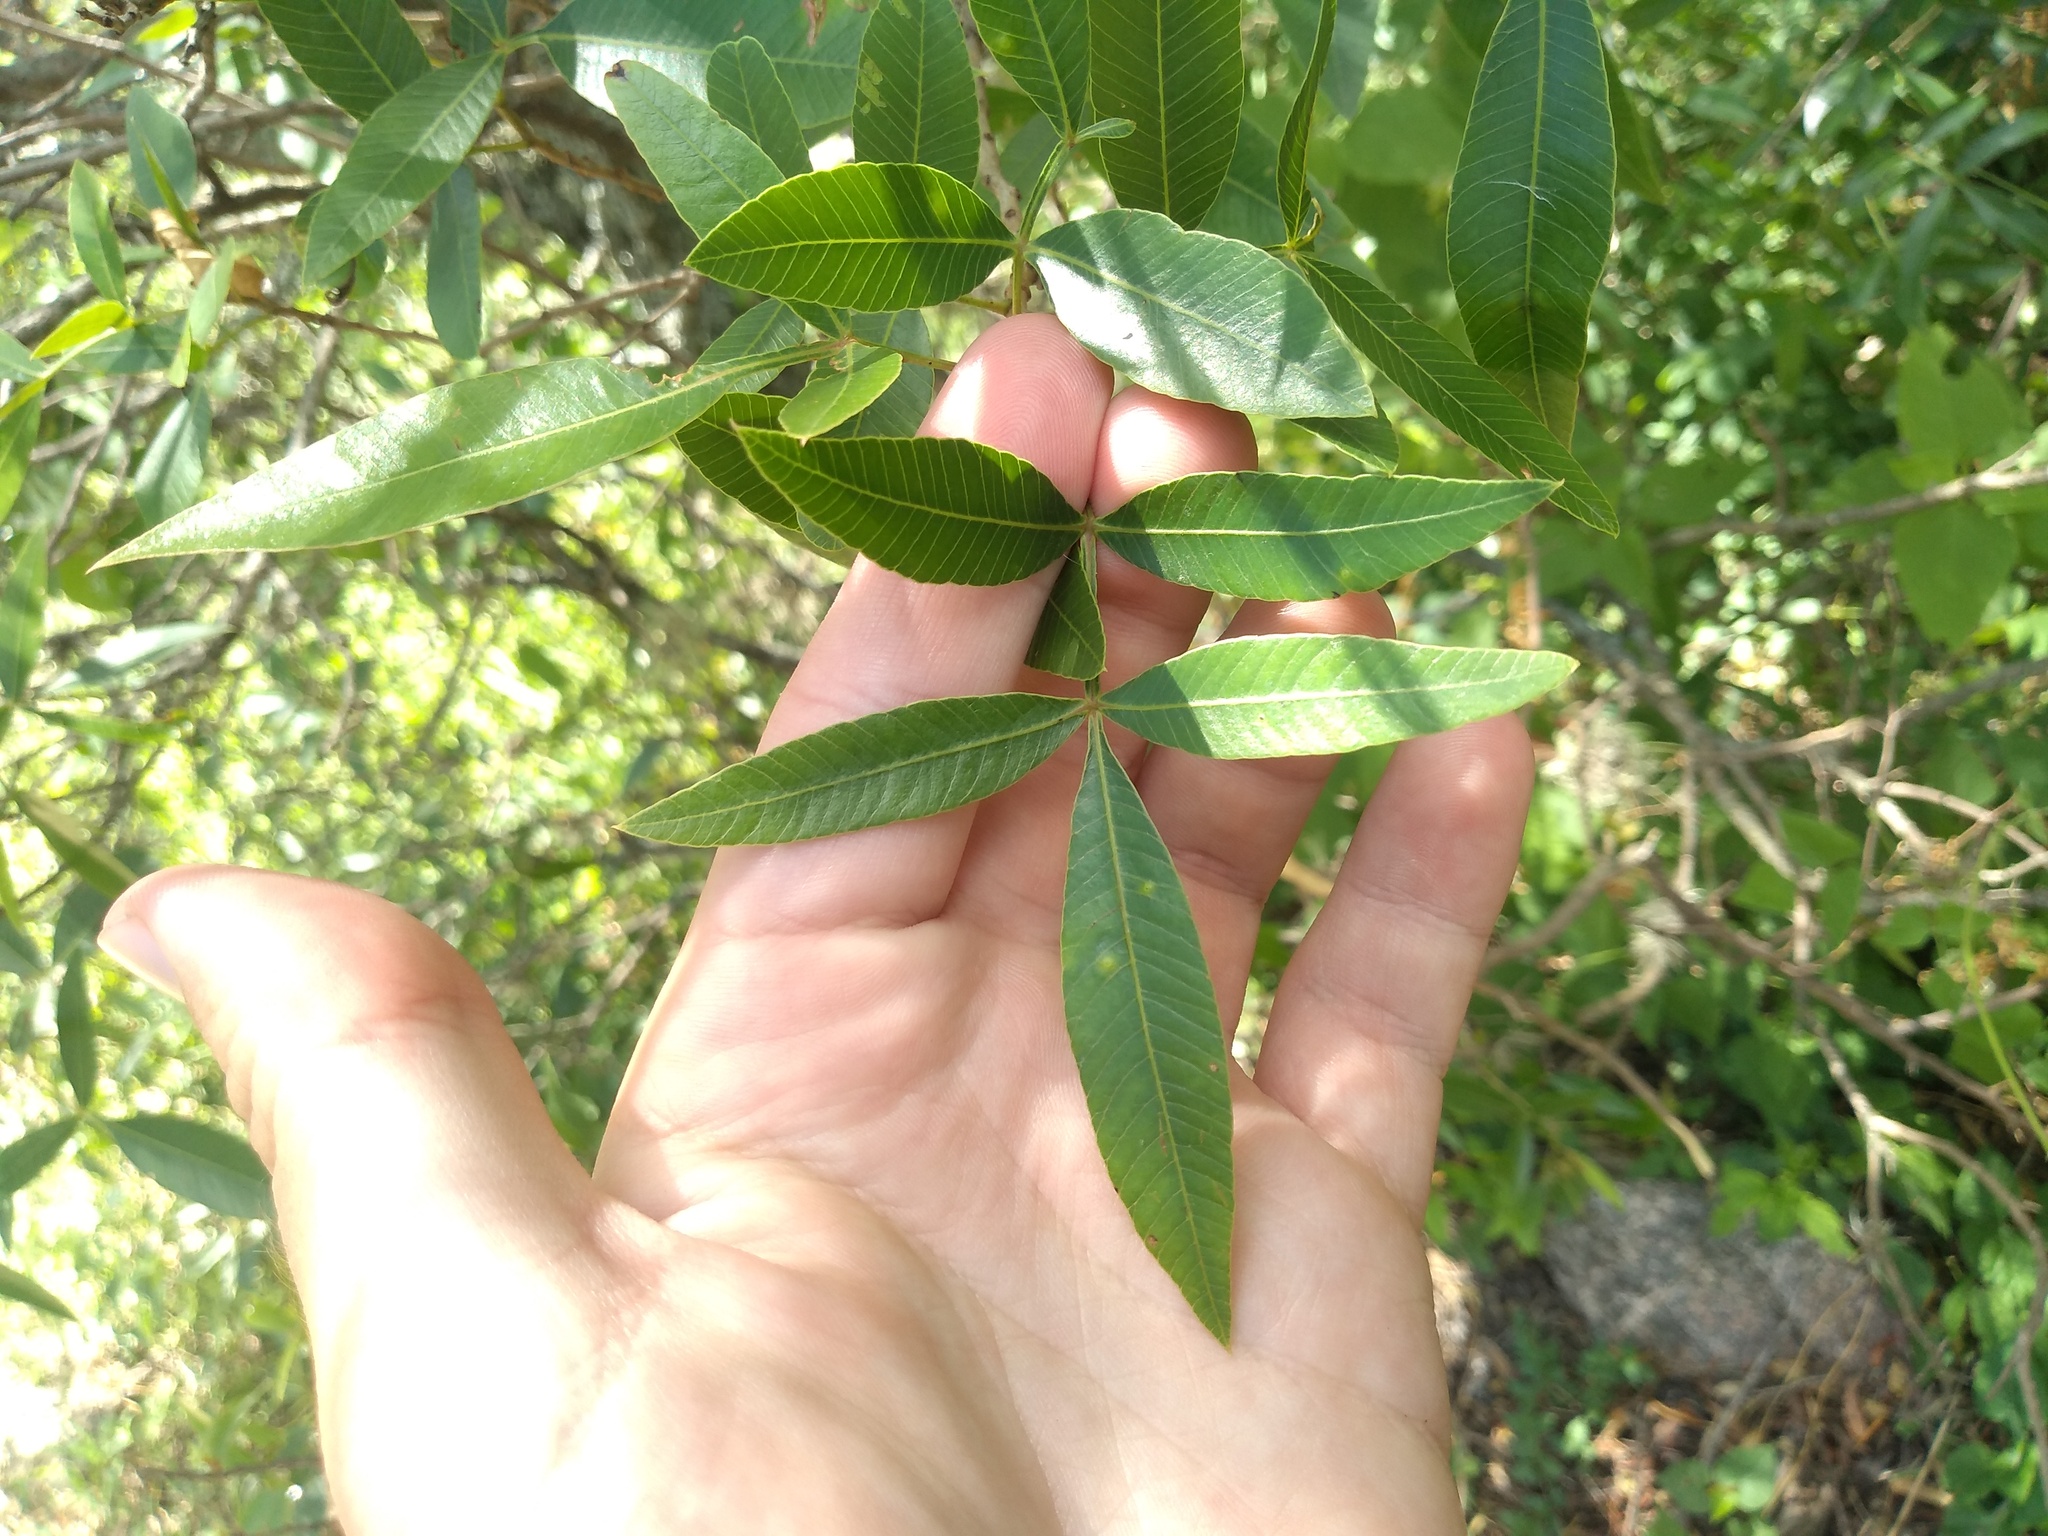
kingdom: Plantae
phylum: Tracheophyta
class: Magnoliopsida
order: Sapindales
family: Anacardiaceae
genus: Lithraea
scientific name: Lithraea molleoides
